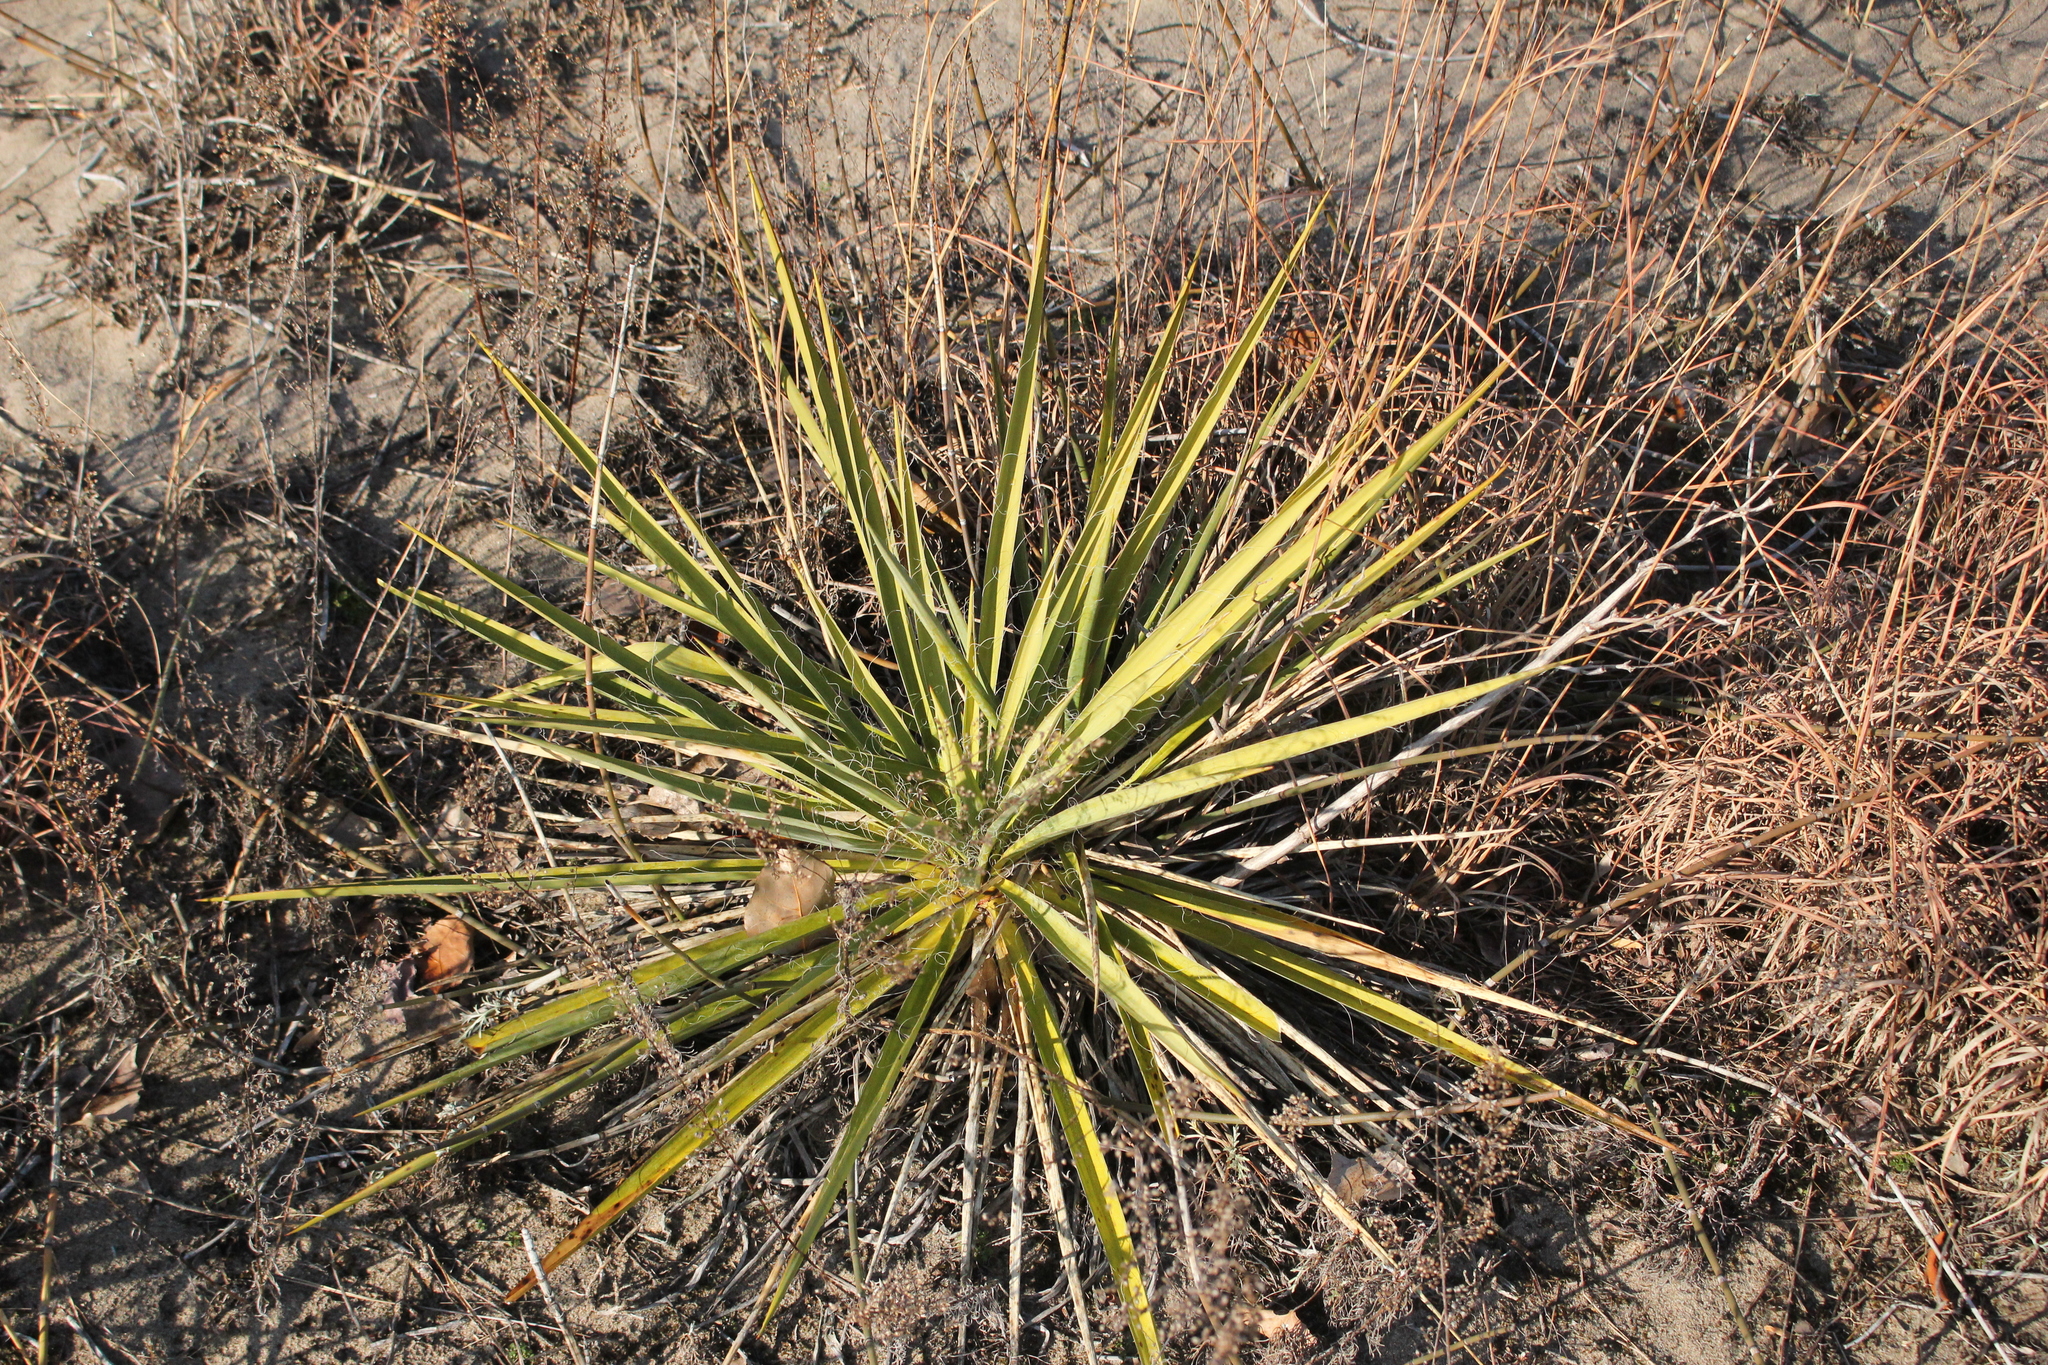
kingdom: Plantae
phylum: Tracheophyta
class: Liliopsida
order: Asparagales
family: Asparagaceae
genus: Yucca
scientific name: Yucca filamentosa
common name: Adam's-needle
